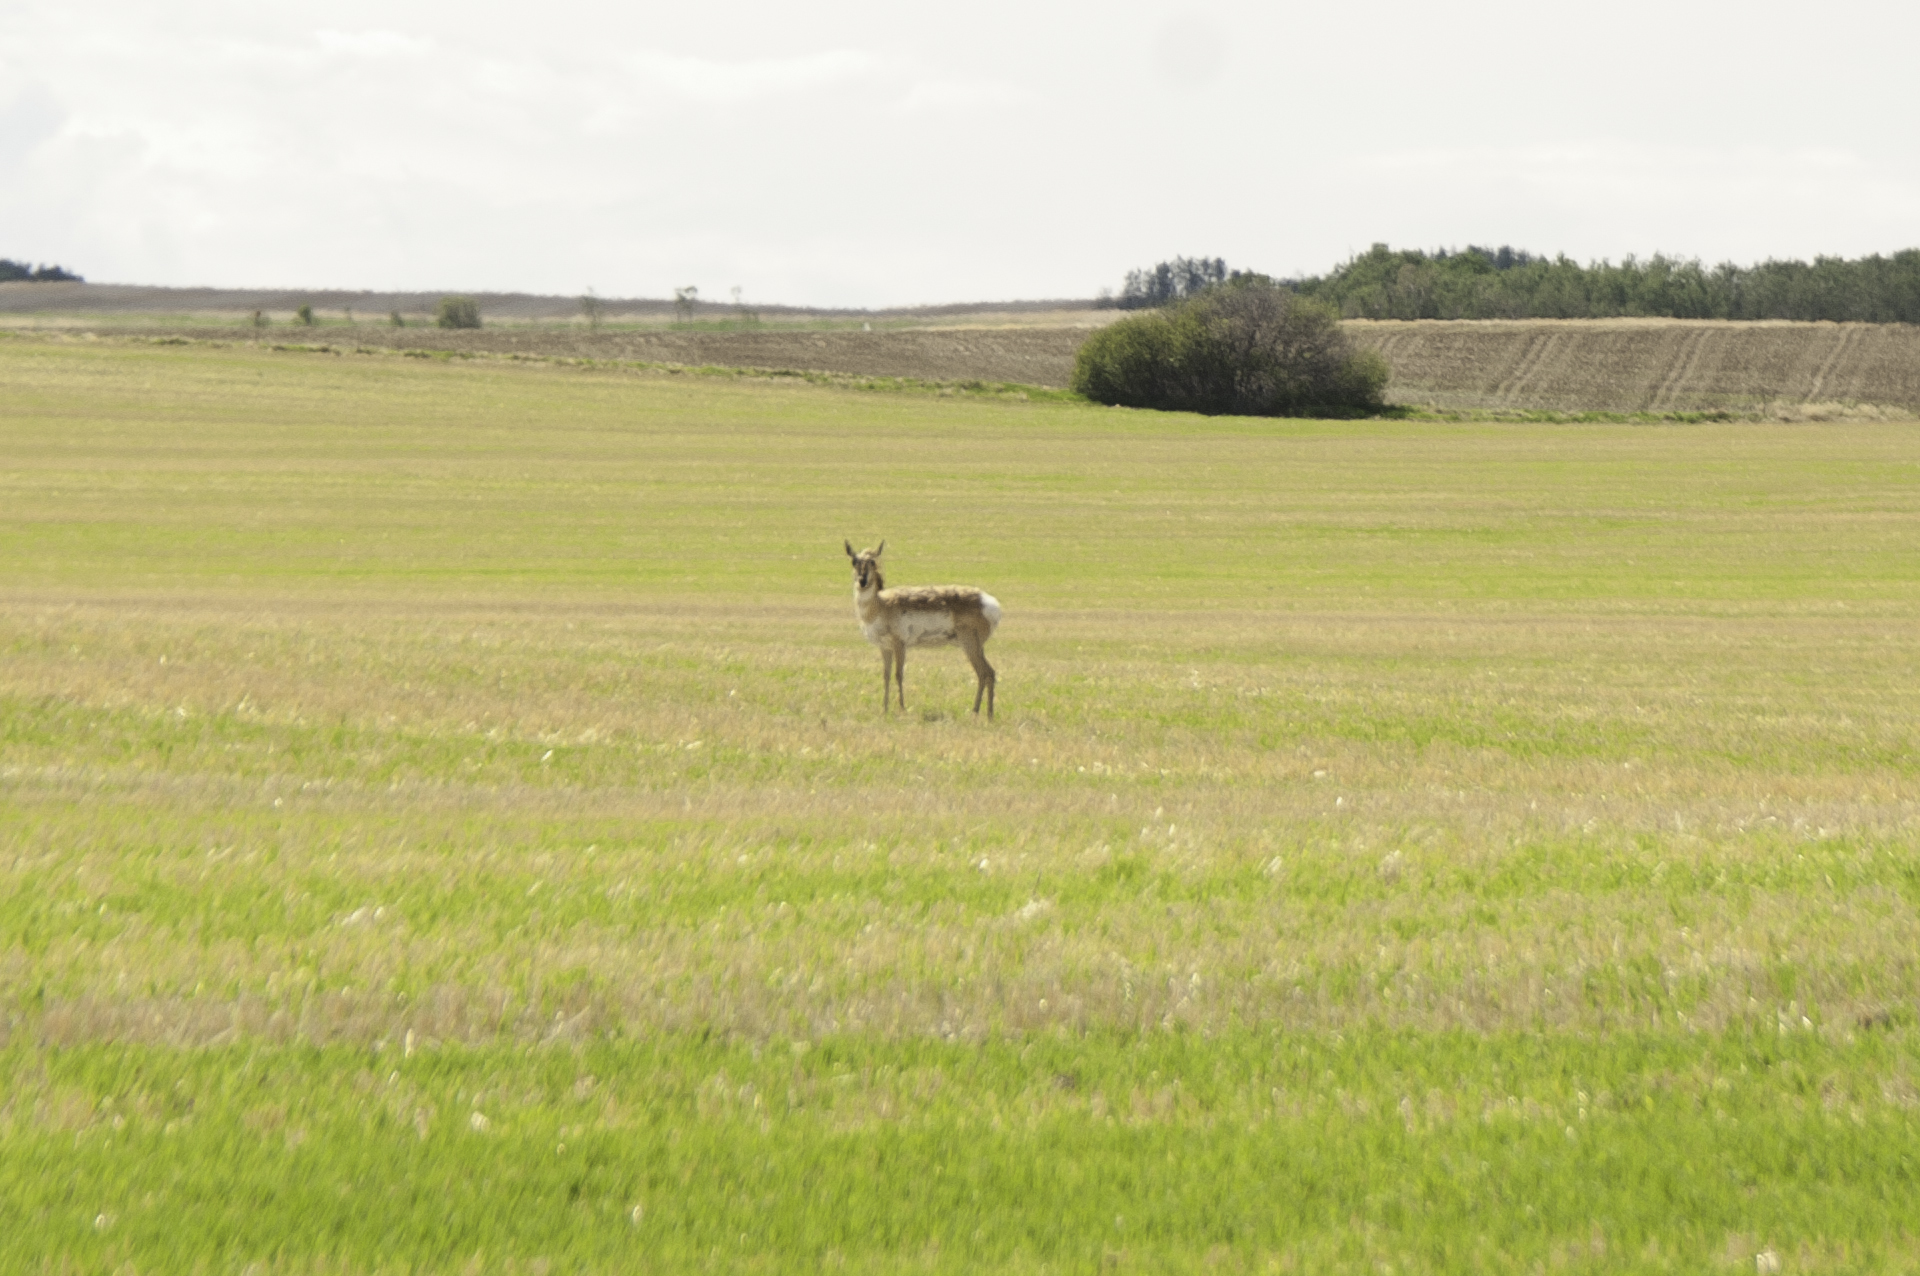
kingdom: Animalia
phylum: Chordata
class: Mammalia
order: Artiodactyla
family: Antilocapridae
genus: Antilocapra
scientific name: Antilocapra americana
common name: Pronghorn
